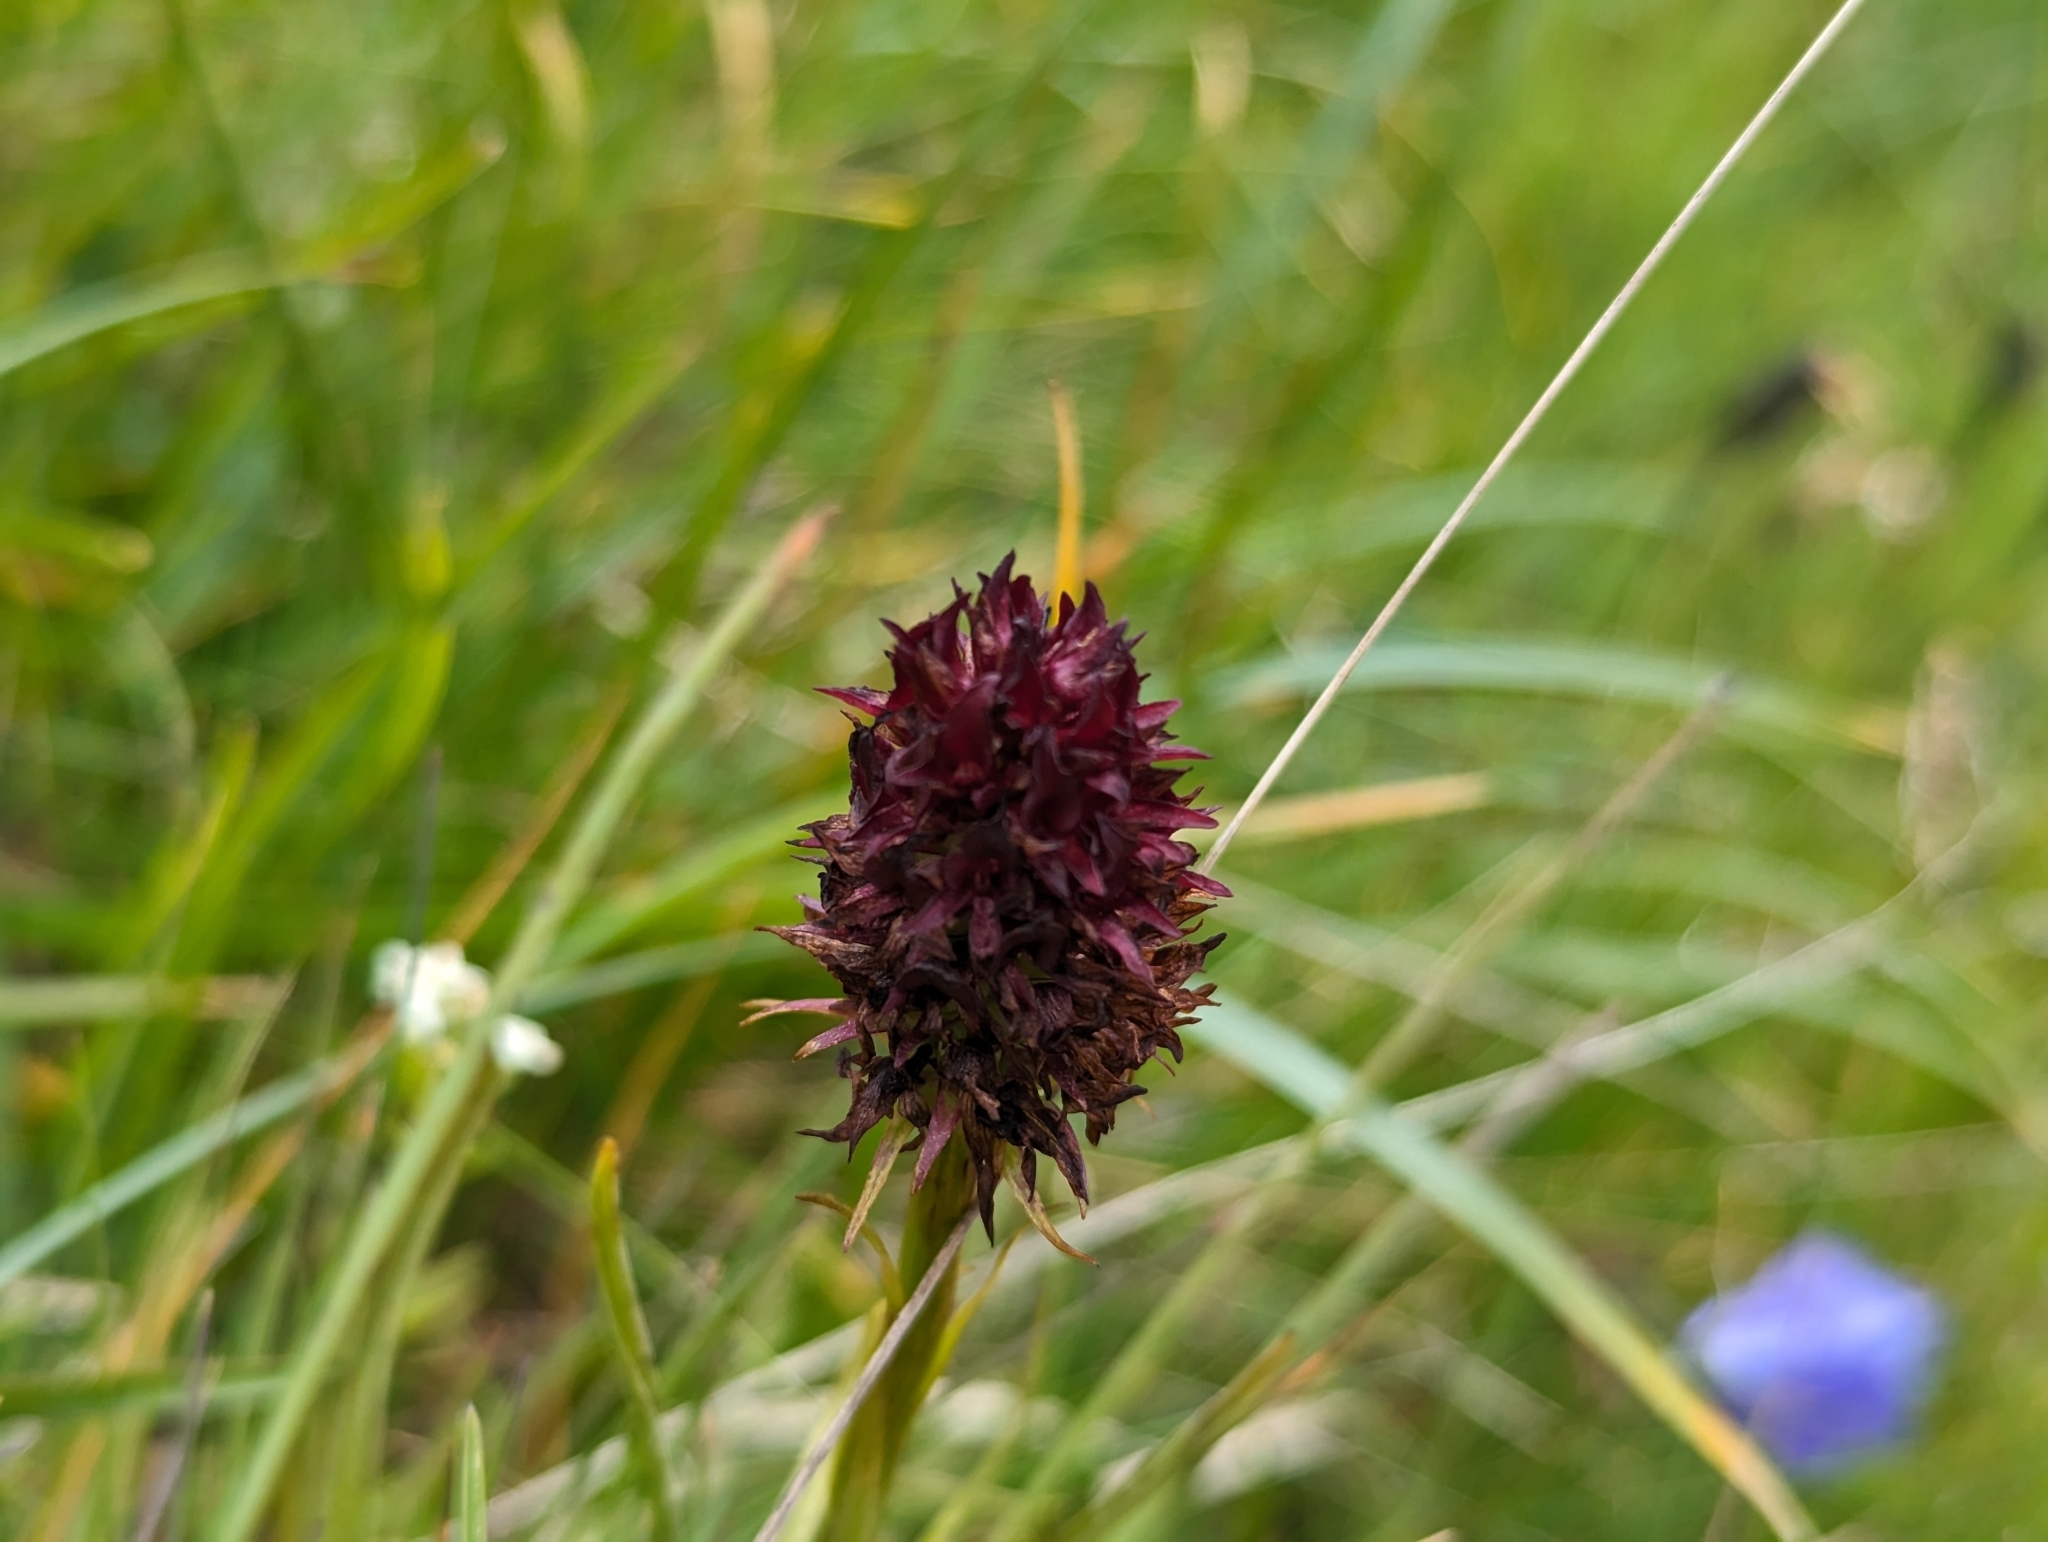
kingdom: Plantae
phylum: Tracheophyta
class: Liliopsida
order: Asparagales
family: Orchidaceae
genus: Gymnadenia
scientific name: Gymnadenia rhellicani
